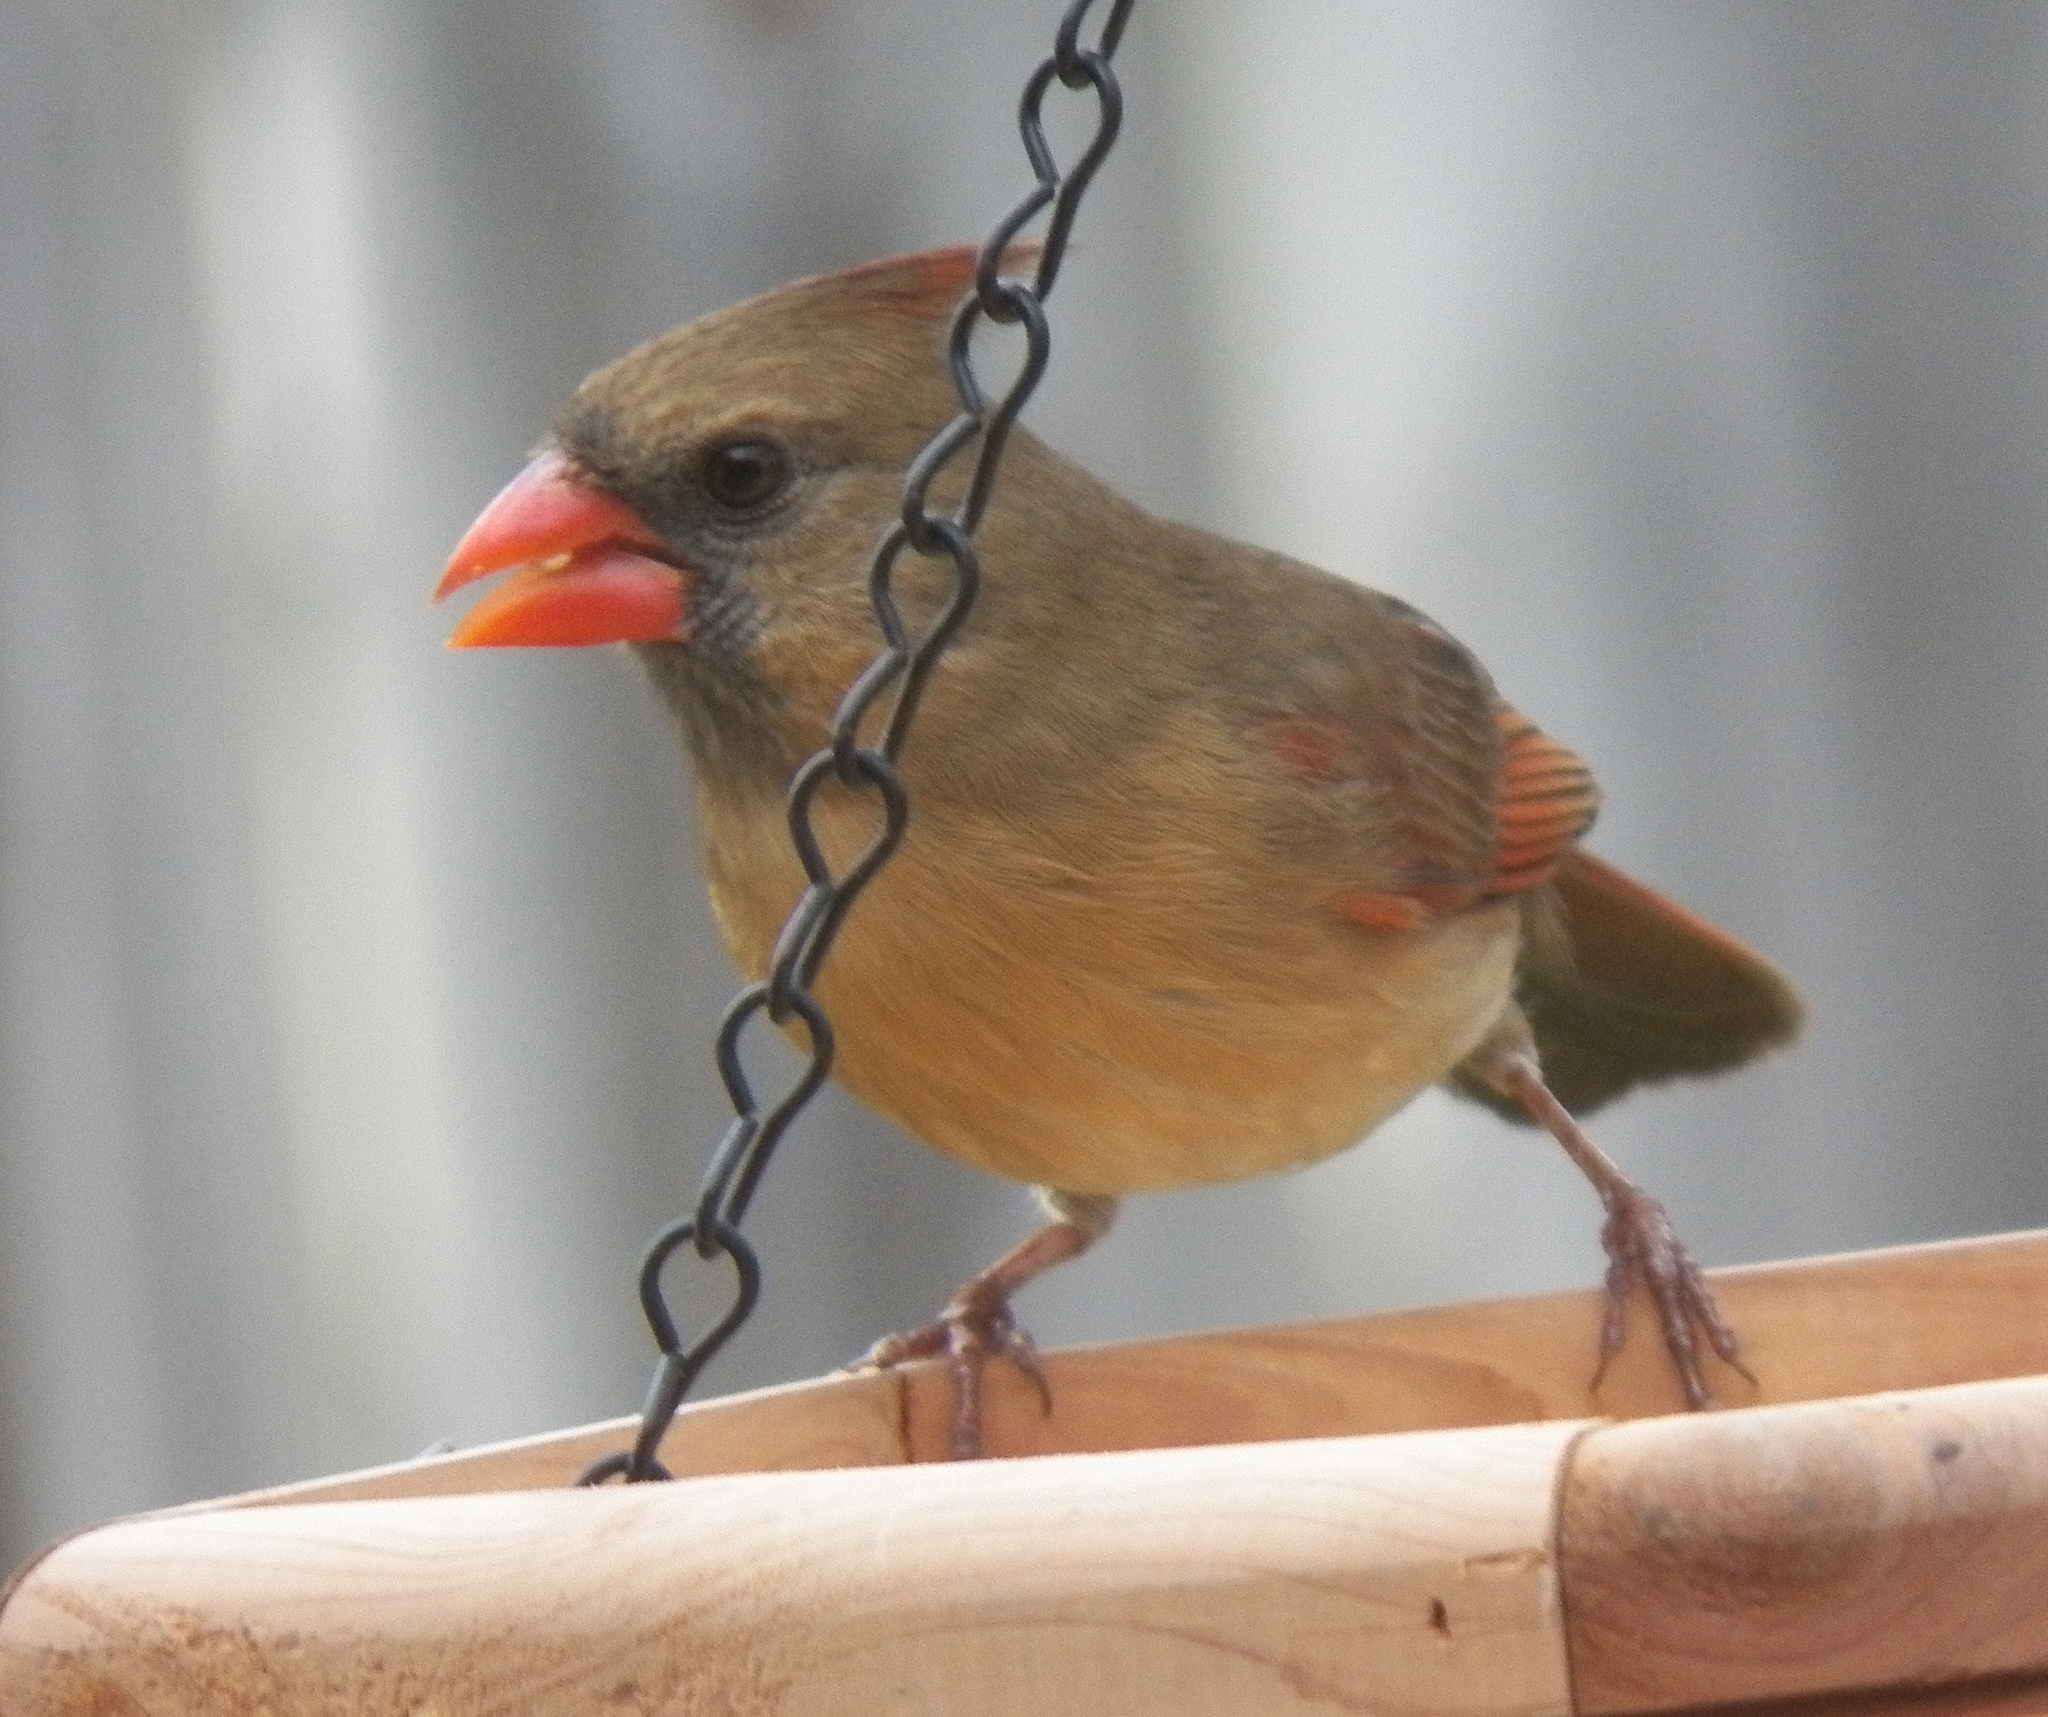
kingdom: Animalia
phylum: Chordata
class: Aves
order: Passeriformes
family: Cardinalidae
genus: Cardinalis
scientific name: Cardinalis cardinalis
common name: Northern cardinal
